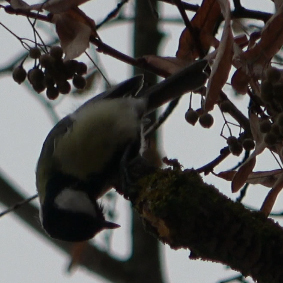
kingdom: Animalia
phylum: Chordata
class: Aves
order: Passeriformes
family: Paridae
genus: Parus
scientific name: Parus major
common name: Great tit
